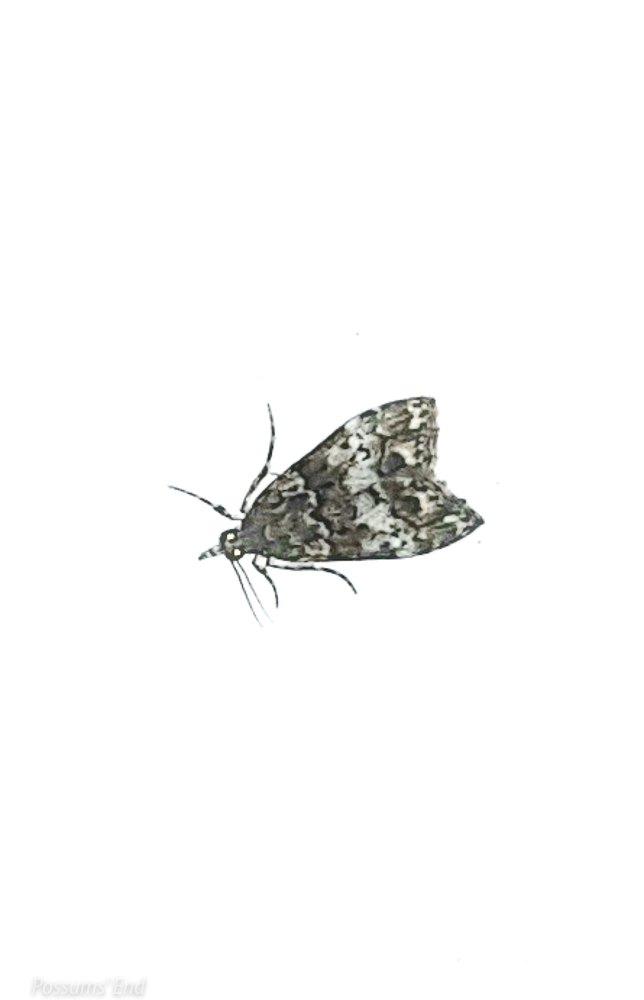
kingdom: Animalia
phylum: Arthropoda
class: Insecta
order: Lepidoptera
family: Crambidae
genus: Eudonia
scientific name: Eudonia dinodes
